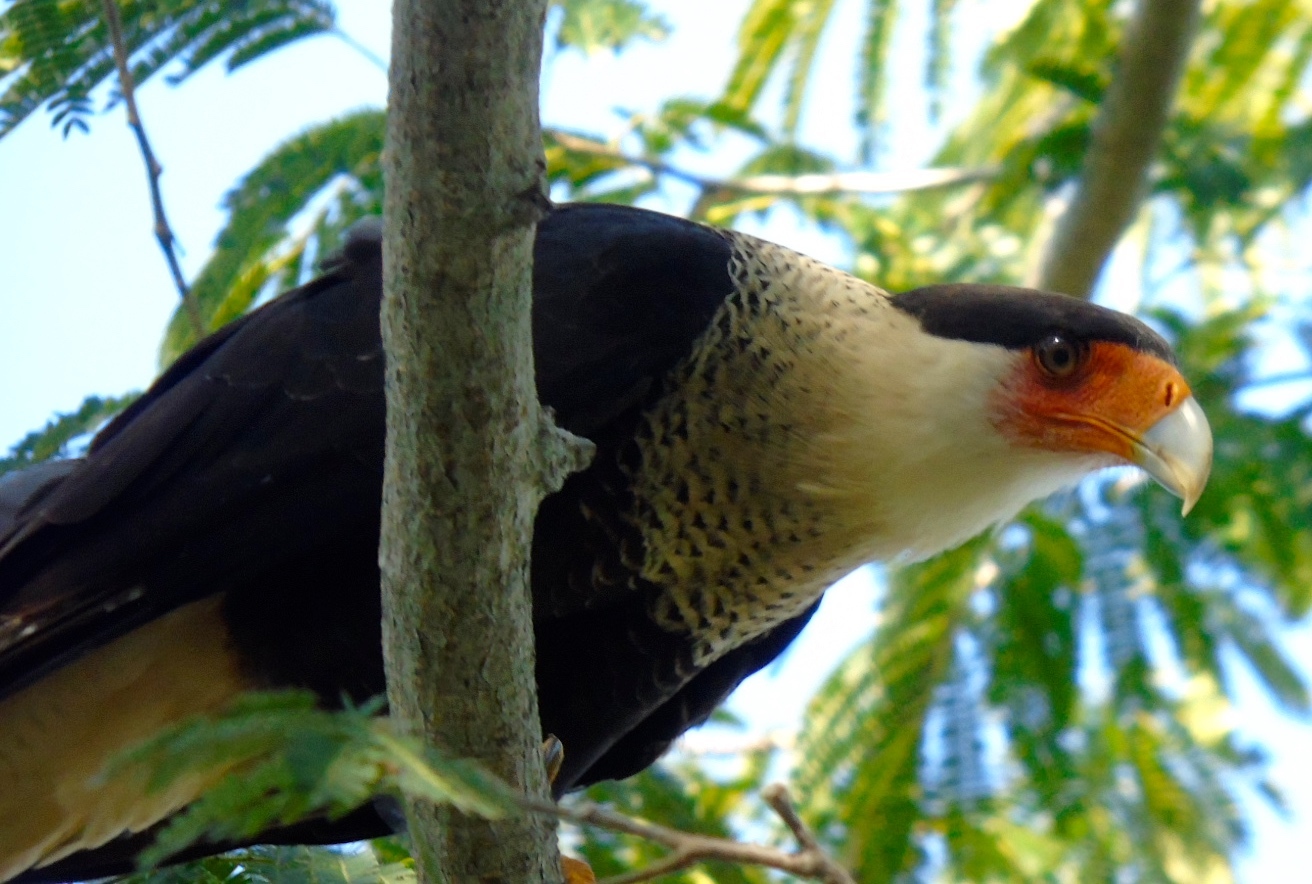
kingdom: Animalia
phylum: Chordata
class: Aves
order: Falconiformes
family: Falconidae
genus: Caracara
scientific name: Caracara plancus
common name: Southern caracara
